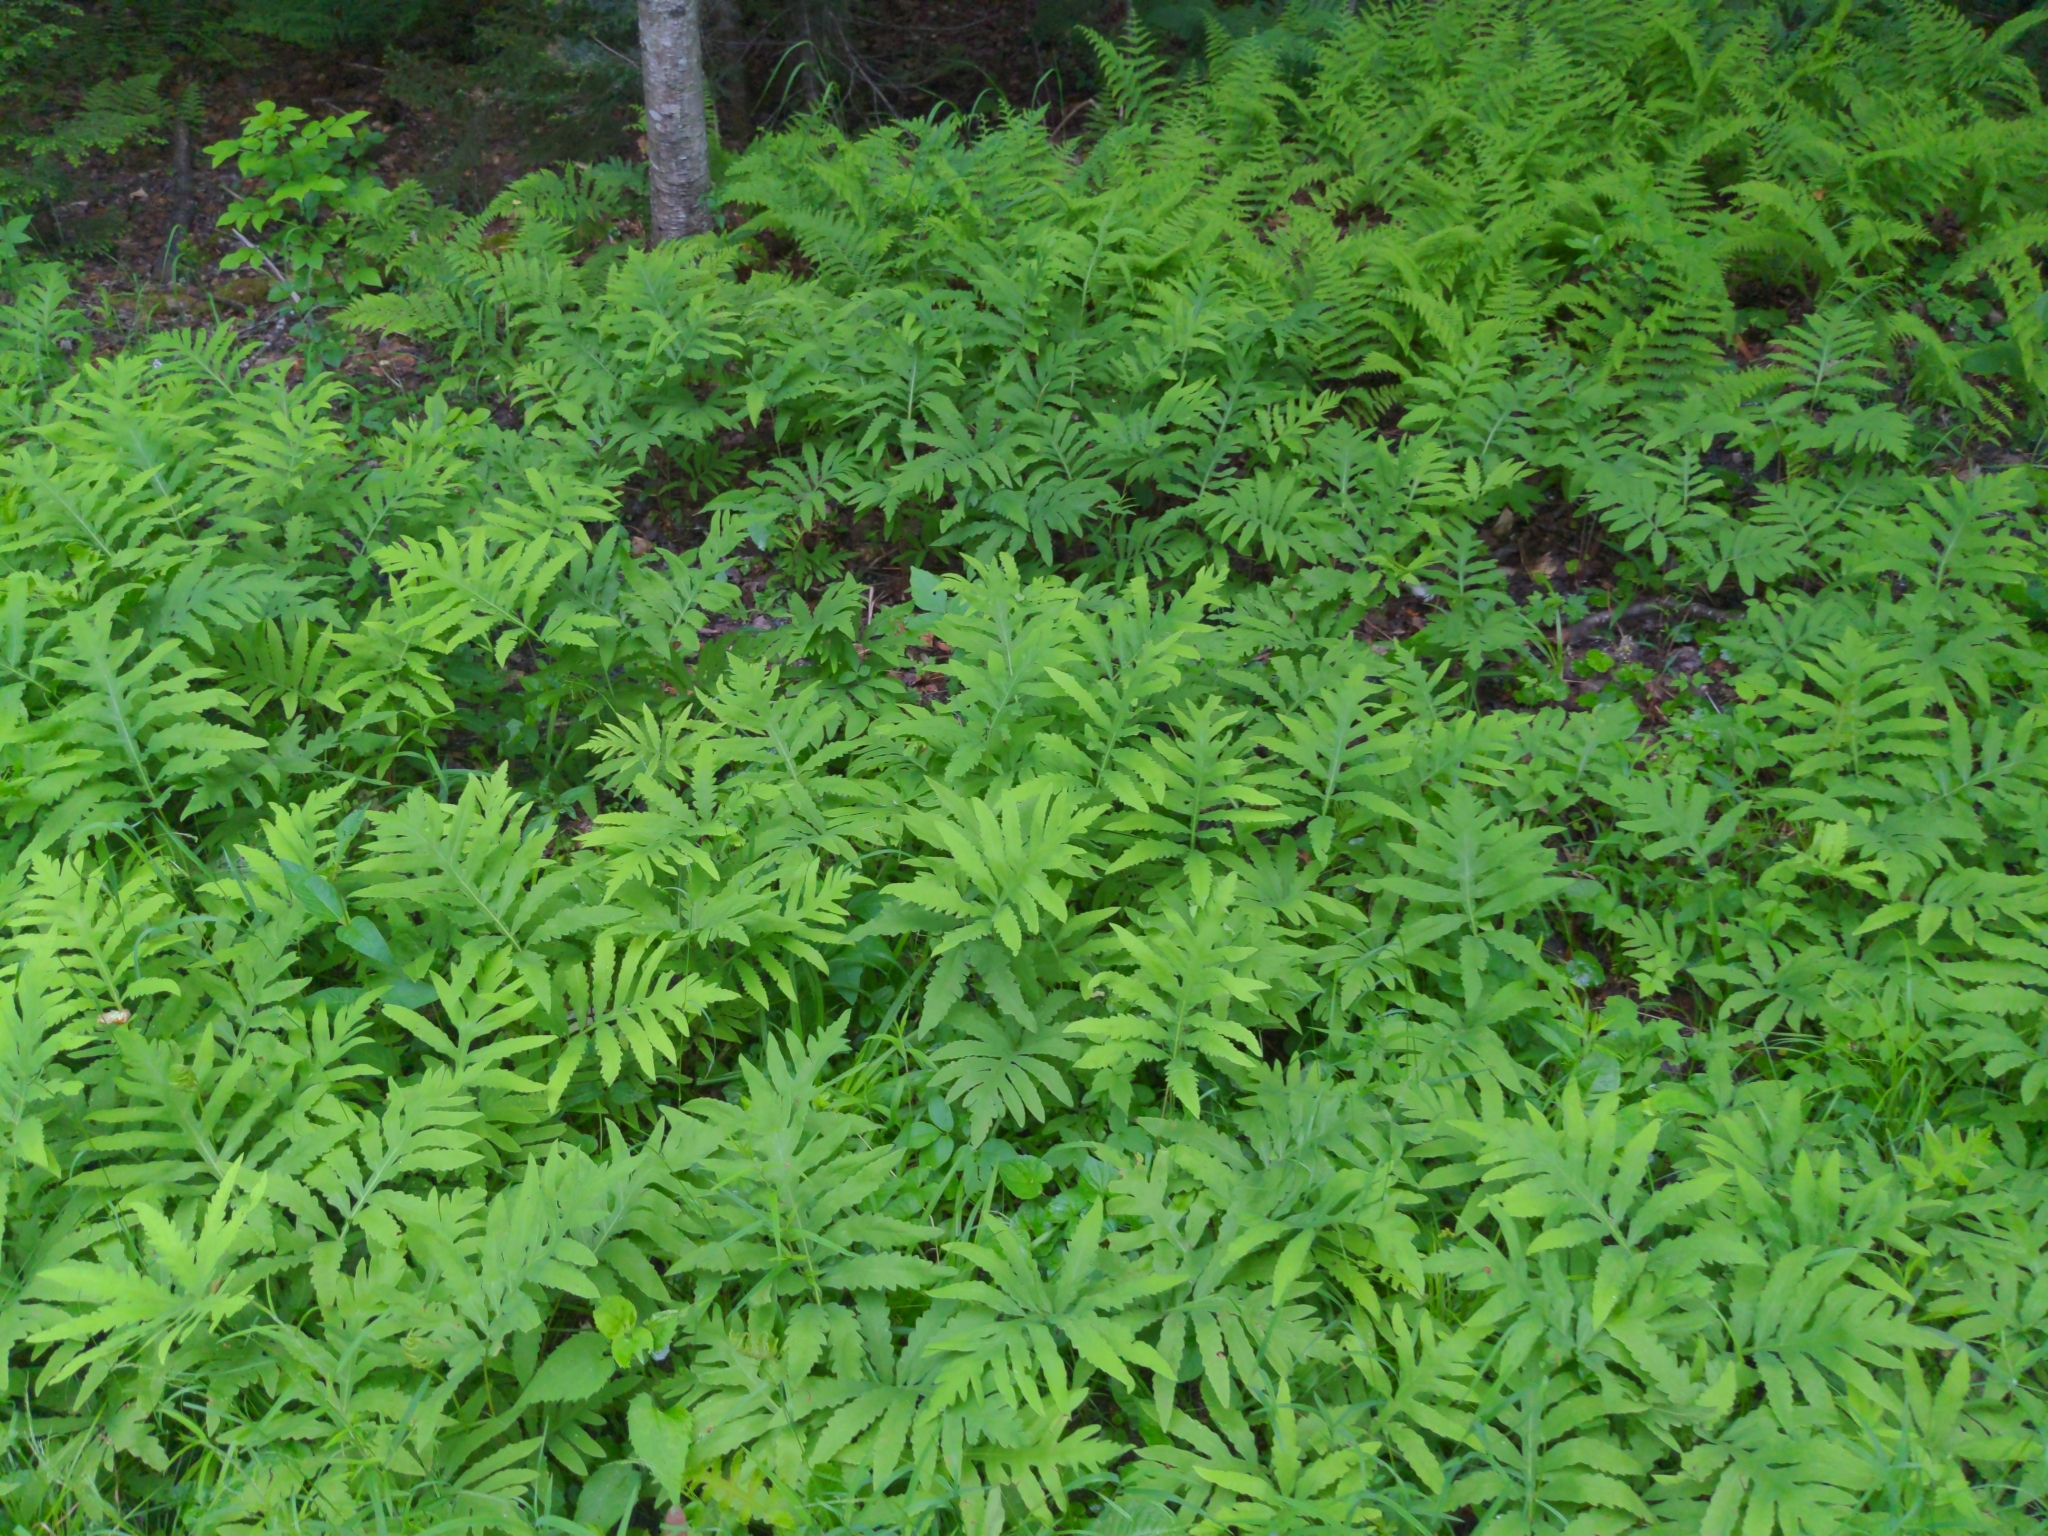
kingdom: Plantae
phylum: Tracheophyta
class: Polypodiopsida
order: Polypodiales
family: Onocleaceae
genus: Onoclea
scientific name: Onoclea sensibilis
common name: Sensitive fern
